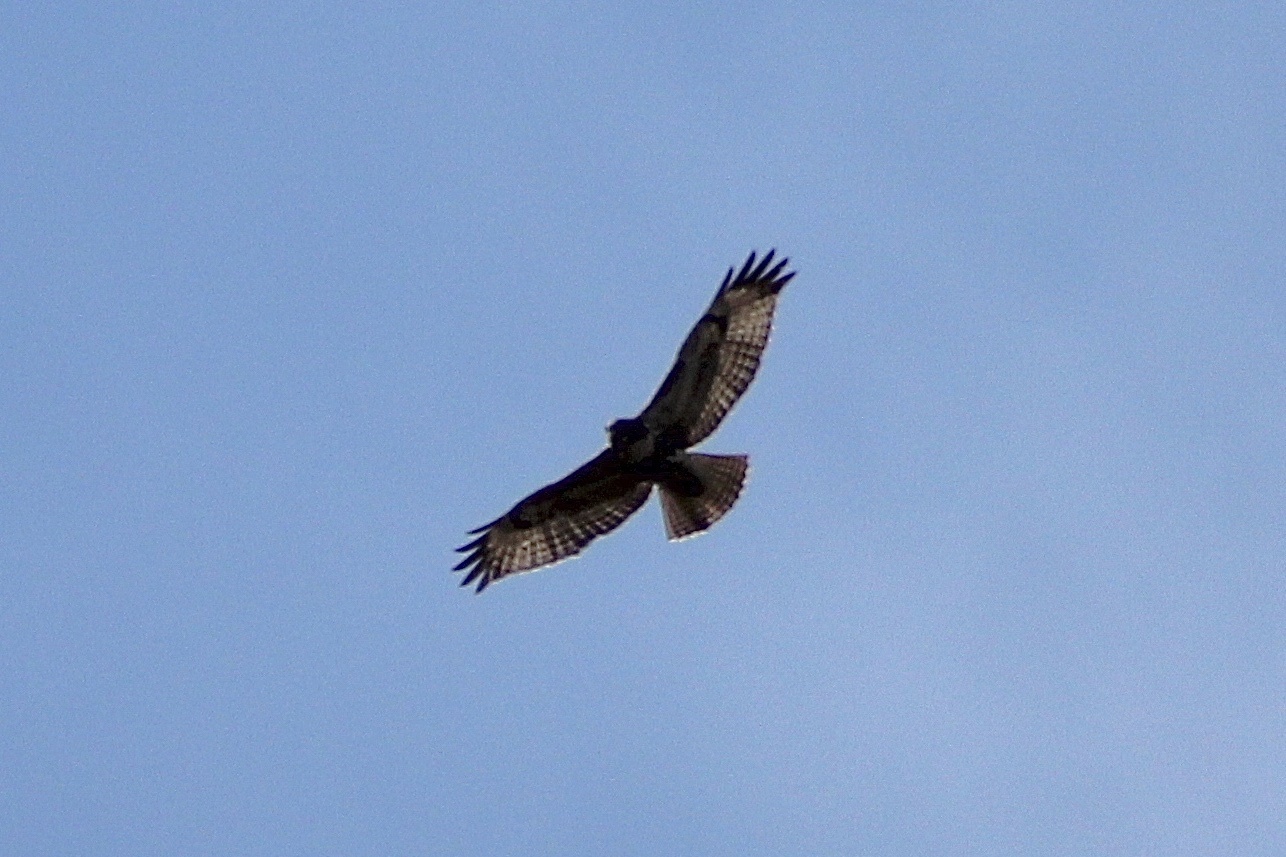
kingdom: Animalia
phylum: Chordata
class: Aves
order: Accipitriformes
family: Accipitridae
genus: Buteo
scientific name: Buteo jamaicensis
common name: Red-tailed hawk
